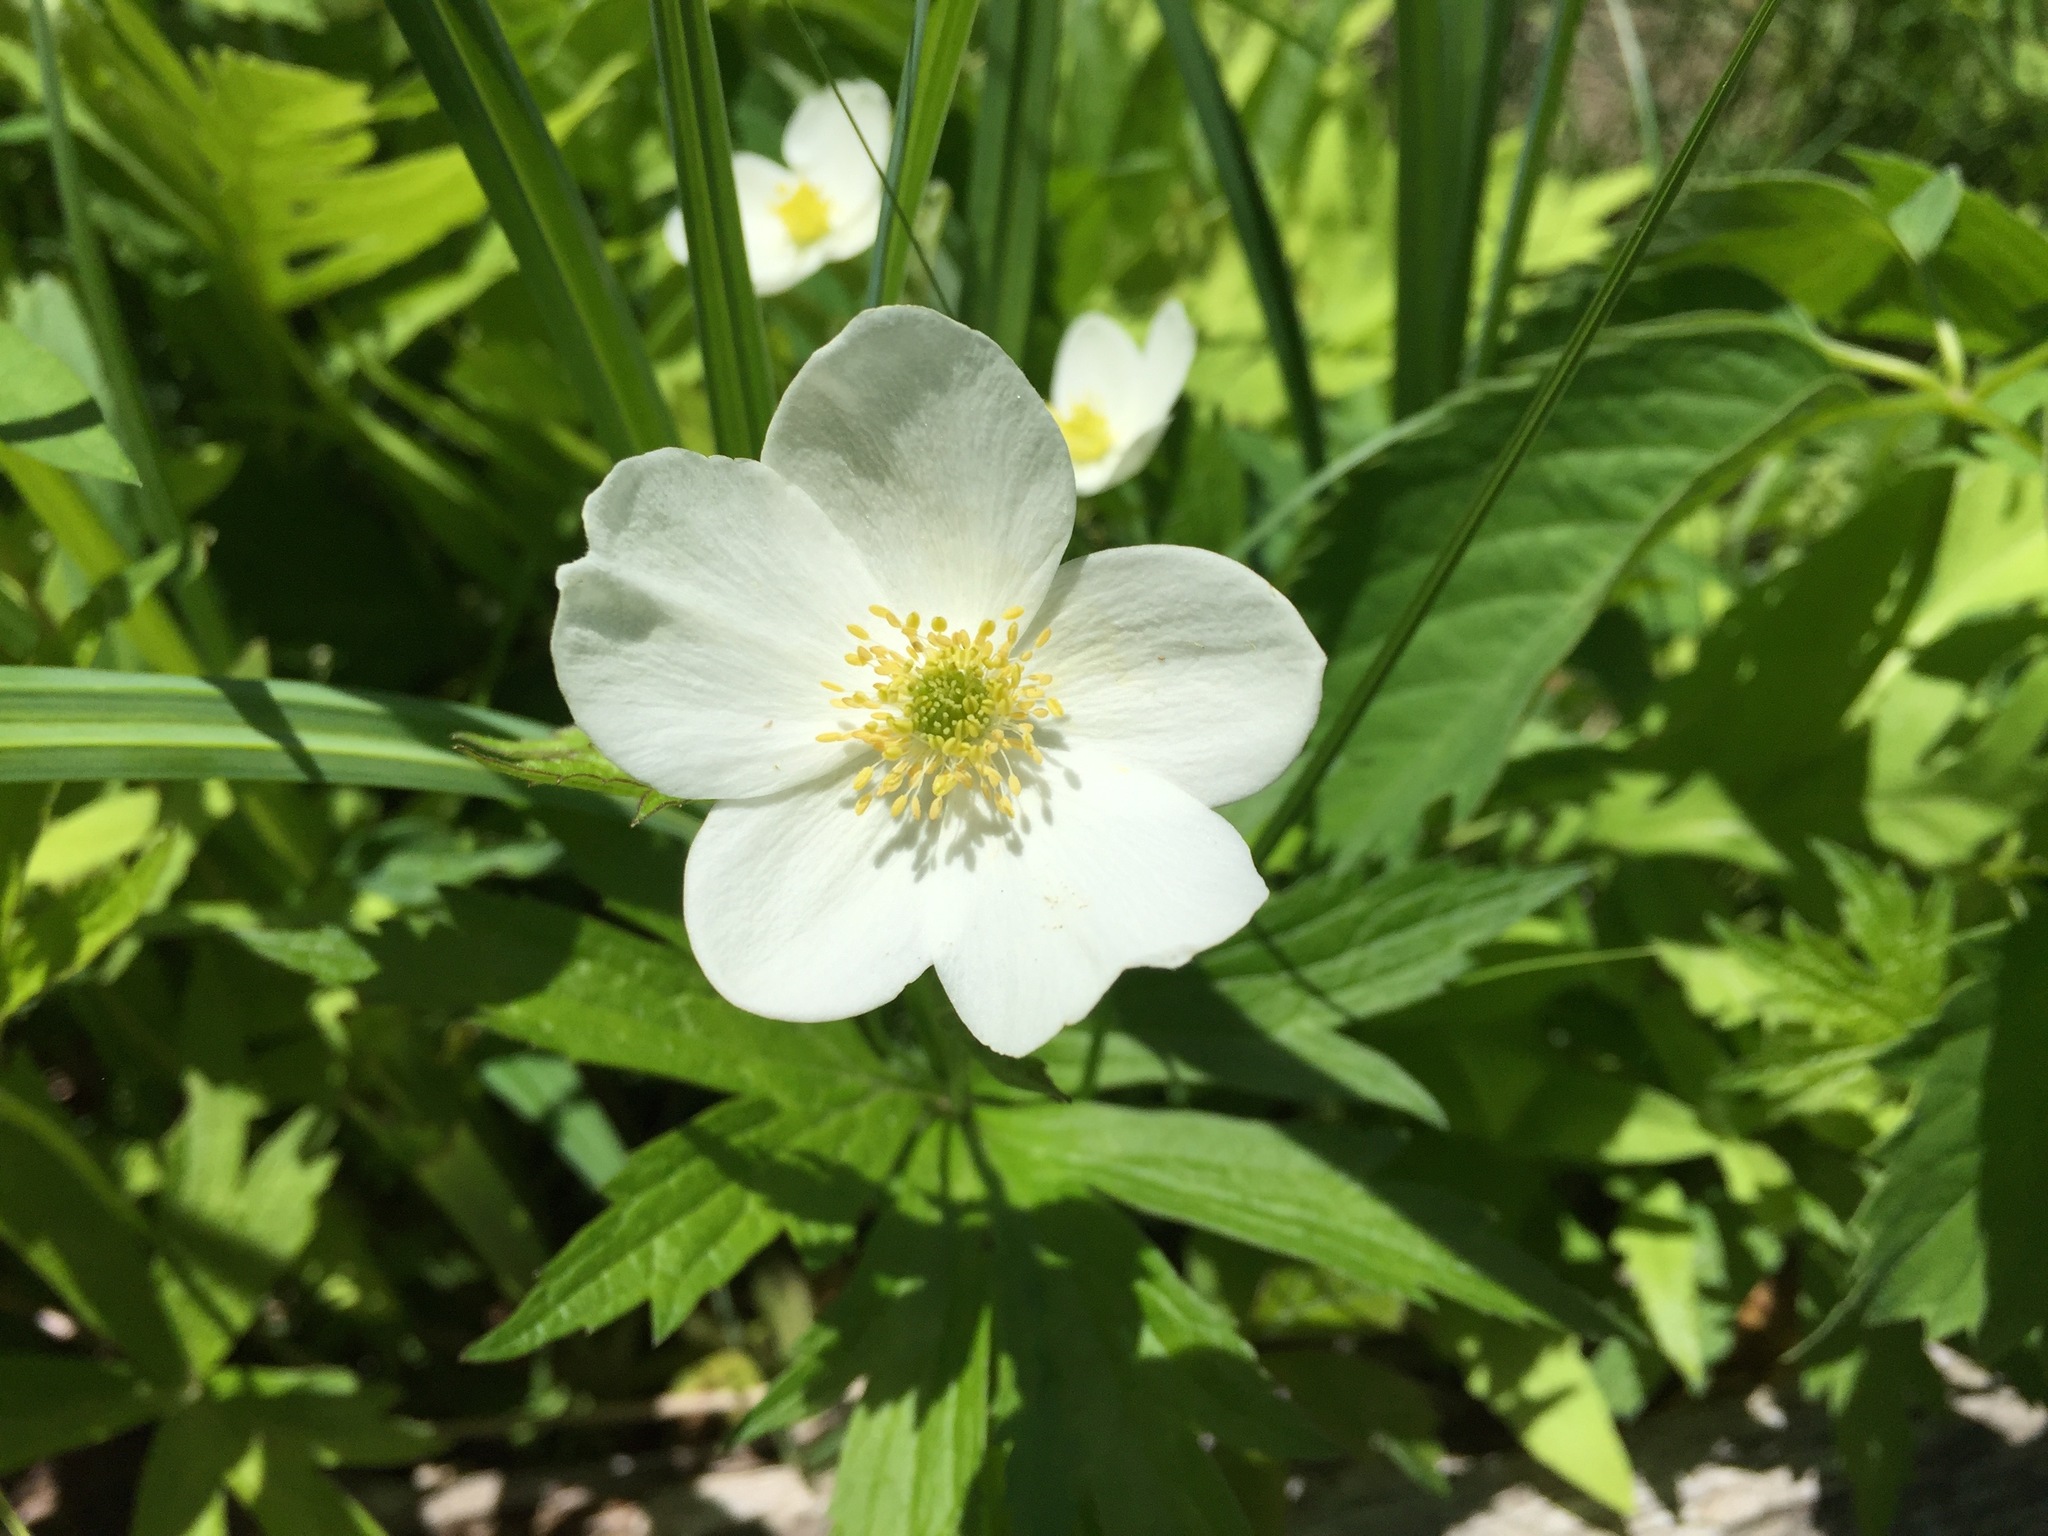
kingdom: Plantae
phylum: Tracheophyta
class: Magnoliopsida
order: Ranunculales
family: Ranunculaceae
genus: Anemonastrum
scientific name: Anemonastrum canadense
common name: Canada anemone
